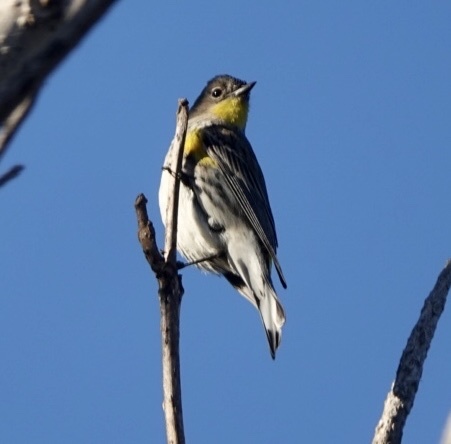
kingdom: Animalia
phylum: Chordata
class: Aves
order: Passeriformes
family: Parulidae
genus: Setophaga
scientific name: Setophaga coronata
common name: Myrtle warbler
